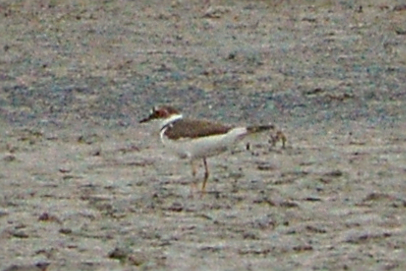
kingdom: Animalia
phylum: Chordata
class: Aves
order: Charadriiformes
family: Charadriidae
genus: Charadrius
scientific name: Charadrius dubius
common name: Little ringed plover
